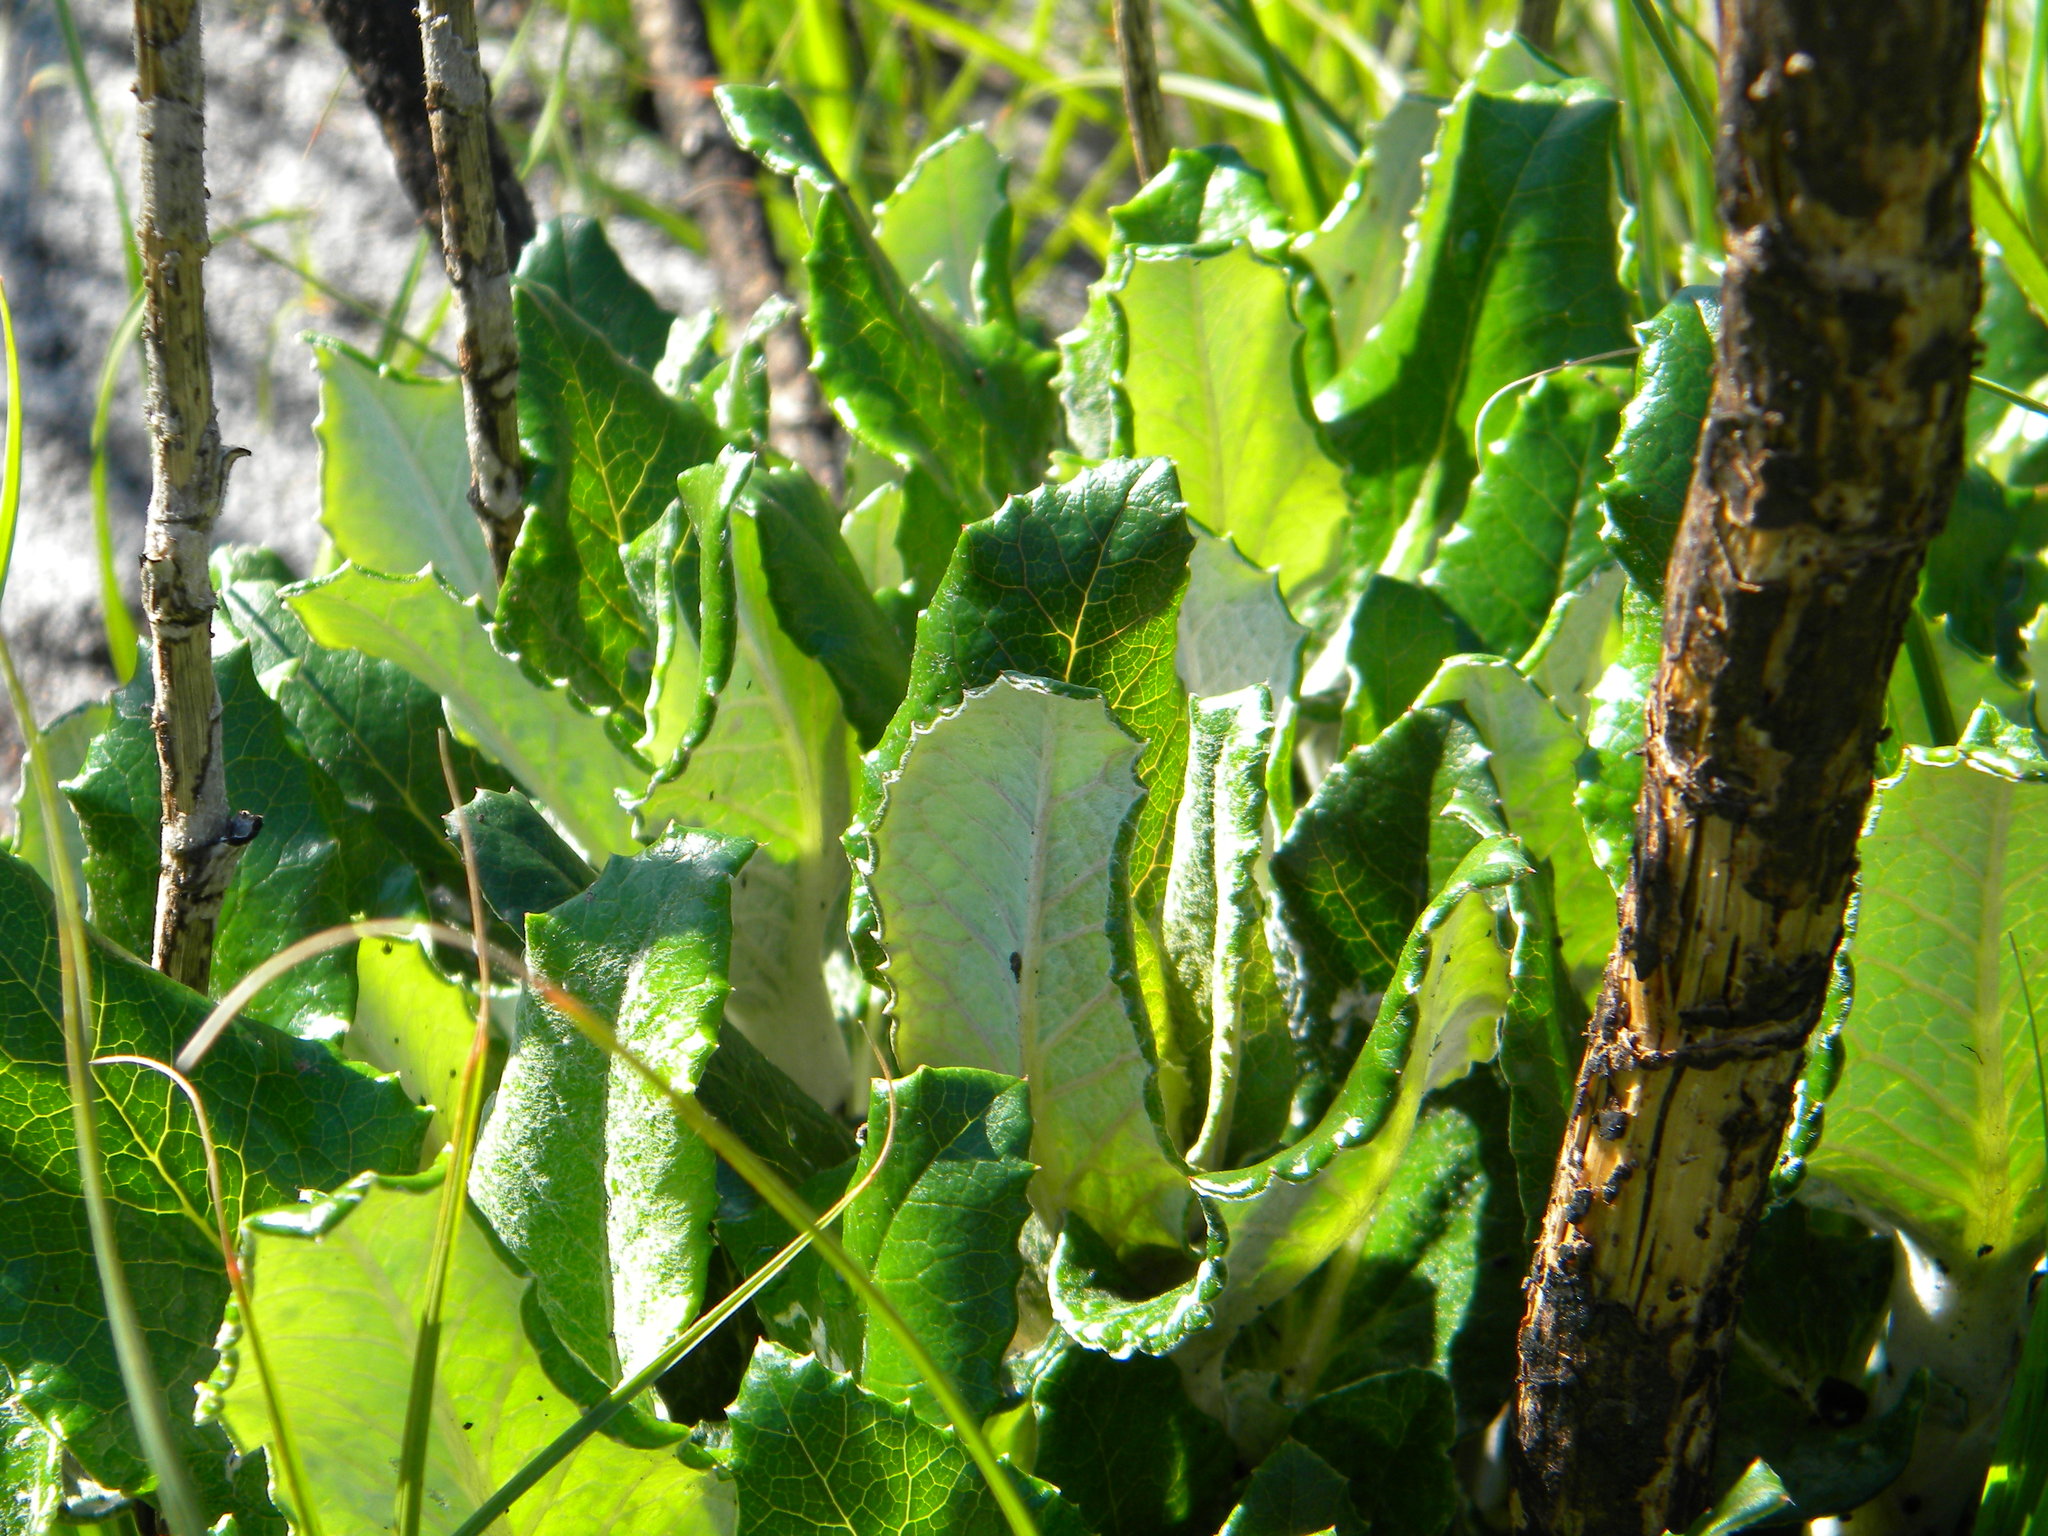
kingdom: Plantae
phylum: Tracheophyta
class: Magnoliopsida
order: Apiales
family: Apiaceae
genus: Hermas
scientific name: Hermas villosa
